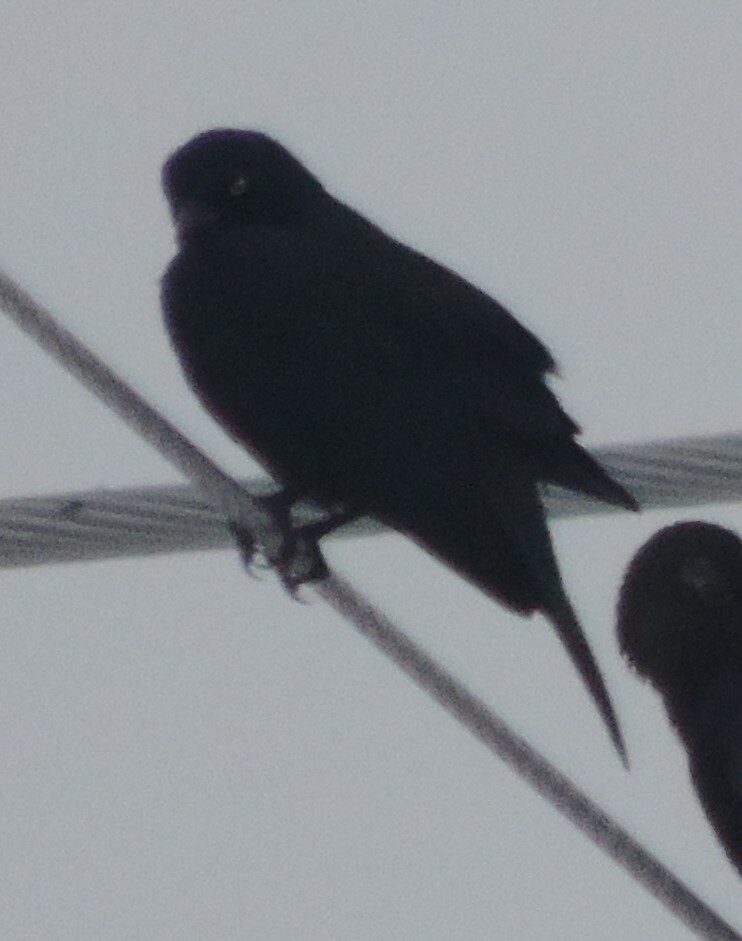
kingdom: Animalia
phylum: Chordata
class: Aves
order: Passeriformes
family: Icteridae
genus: Euphagus
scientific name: Euphagus cyanocephalus
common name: Brewer's blackbird
